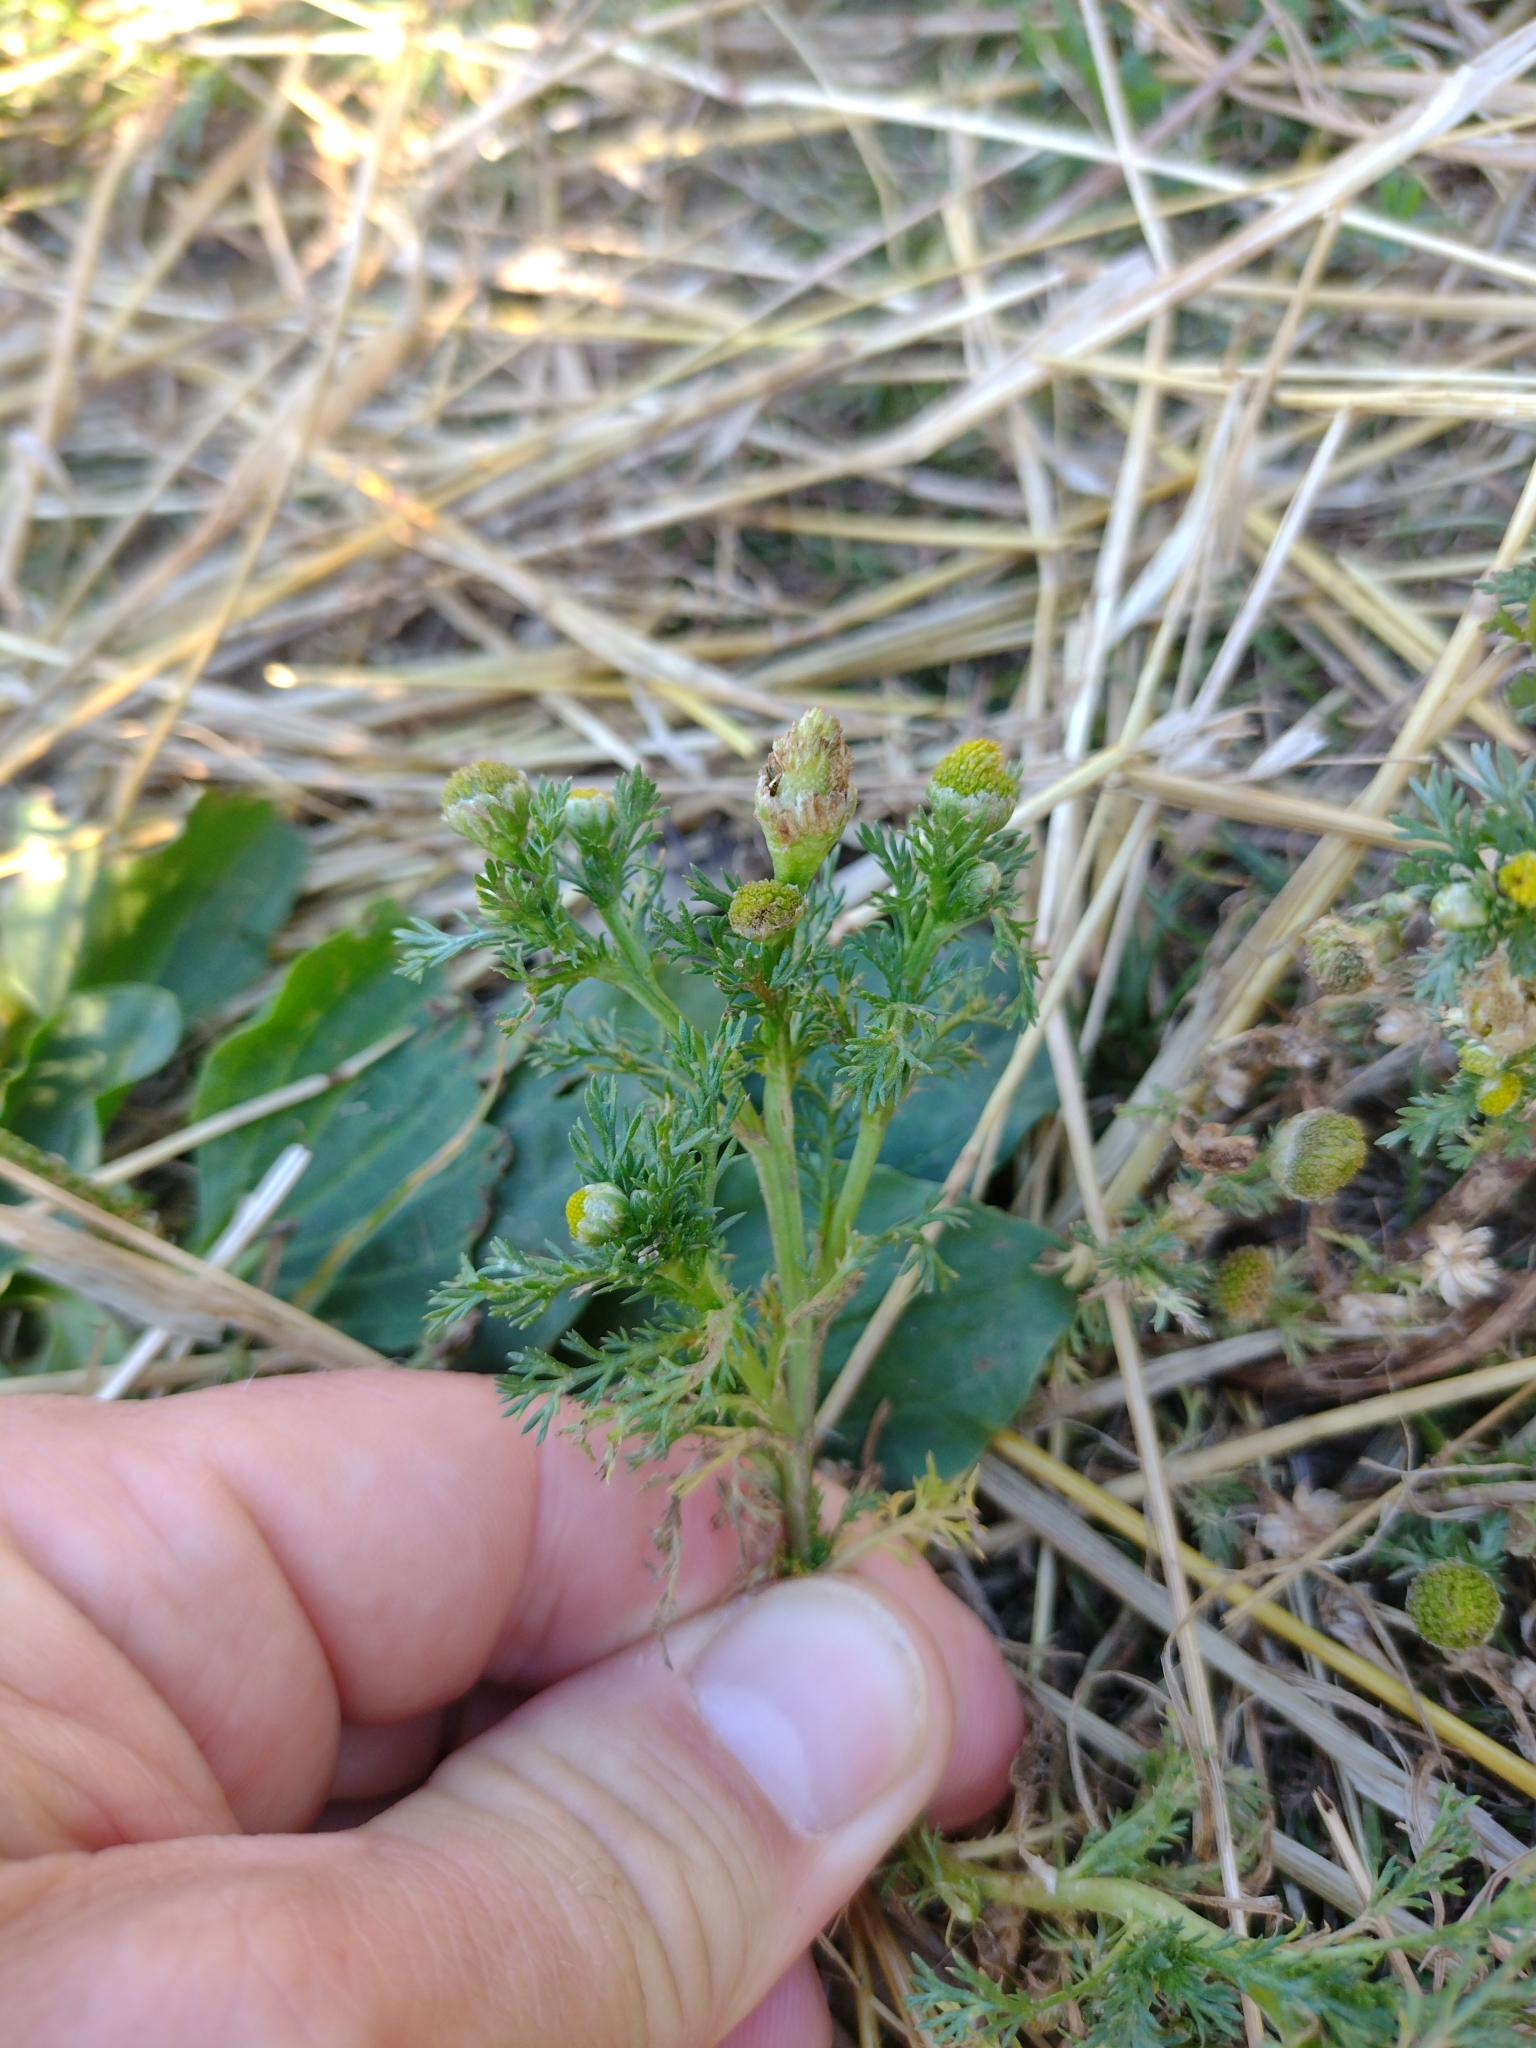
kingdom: Plantae
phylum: Tracheophyta
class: Magnoliopsida
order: Asterales
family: Asteraceae
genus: Matricaria
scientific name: Matricaria discoidea
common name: Disc mayweed
